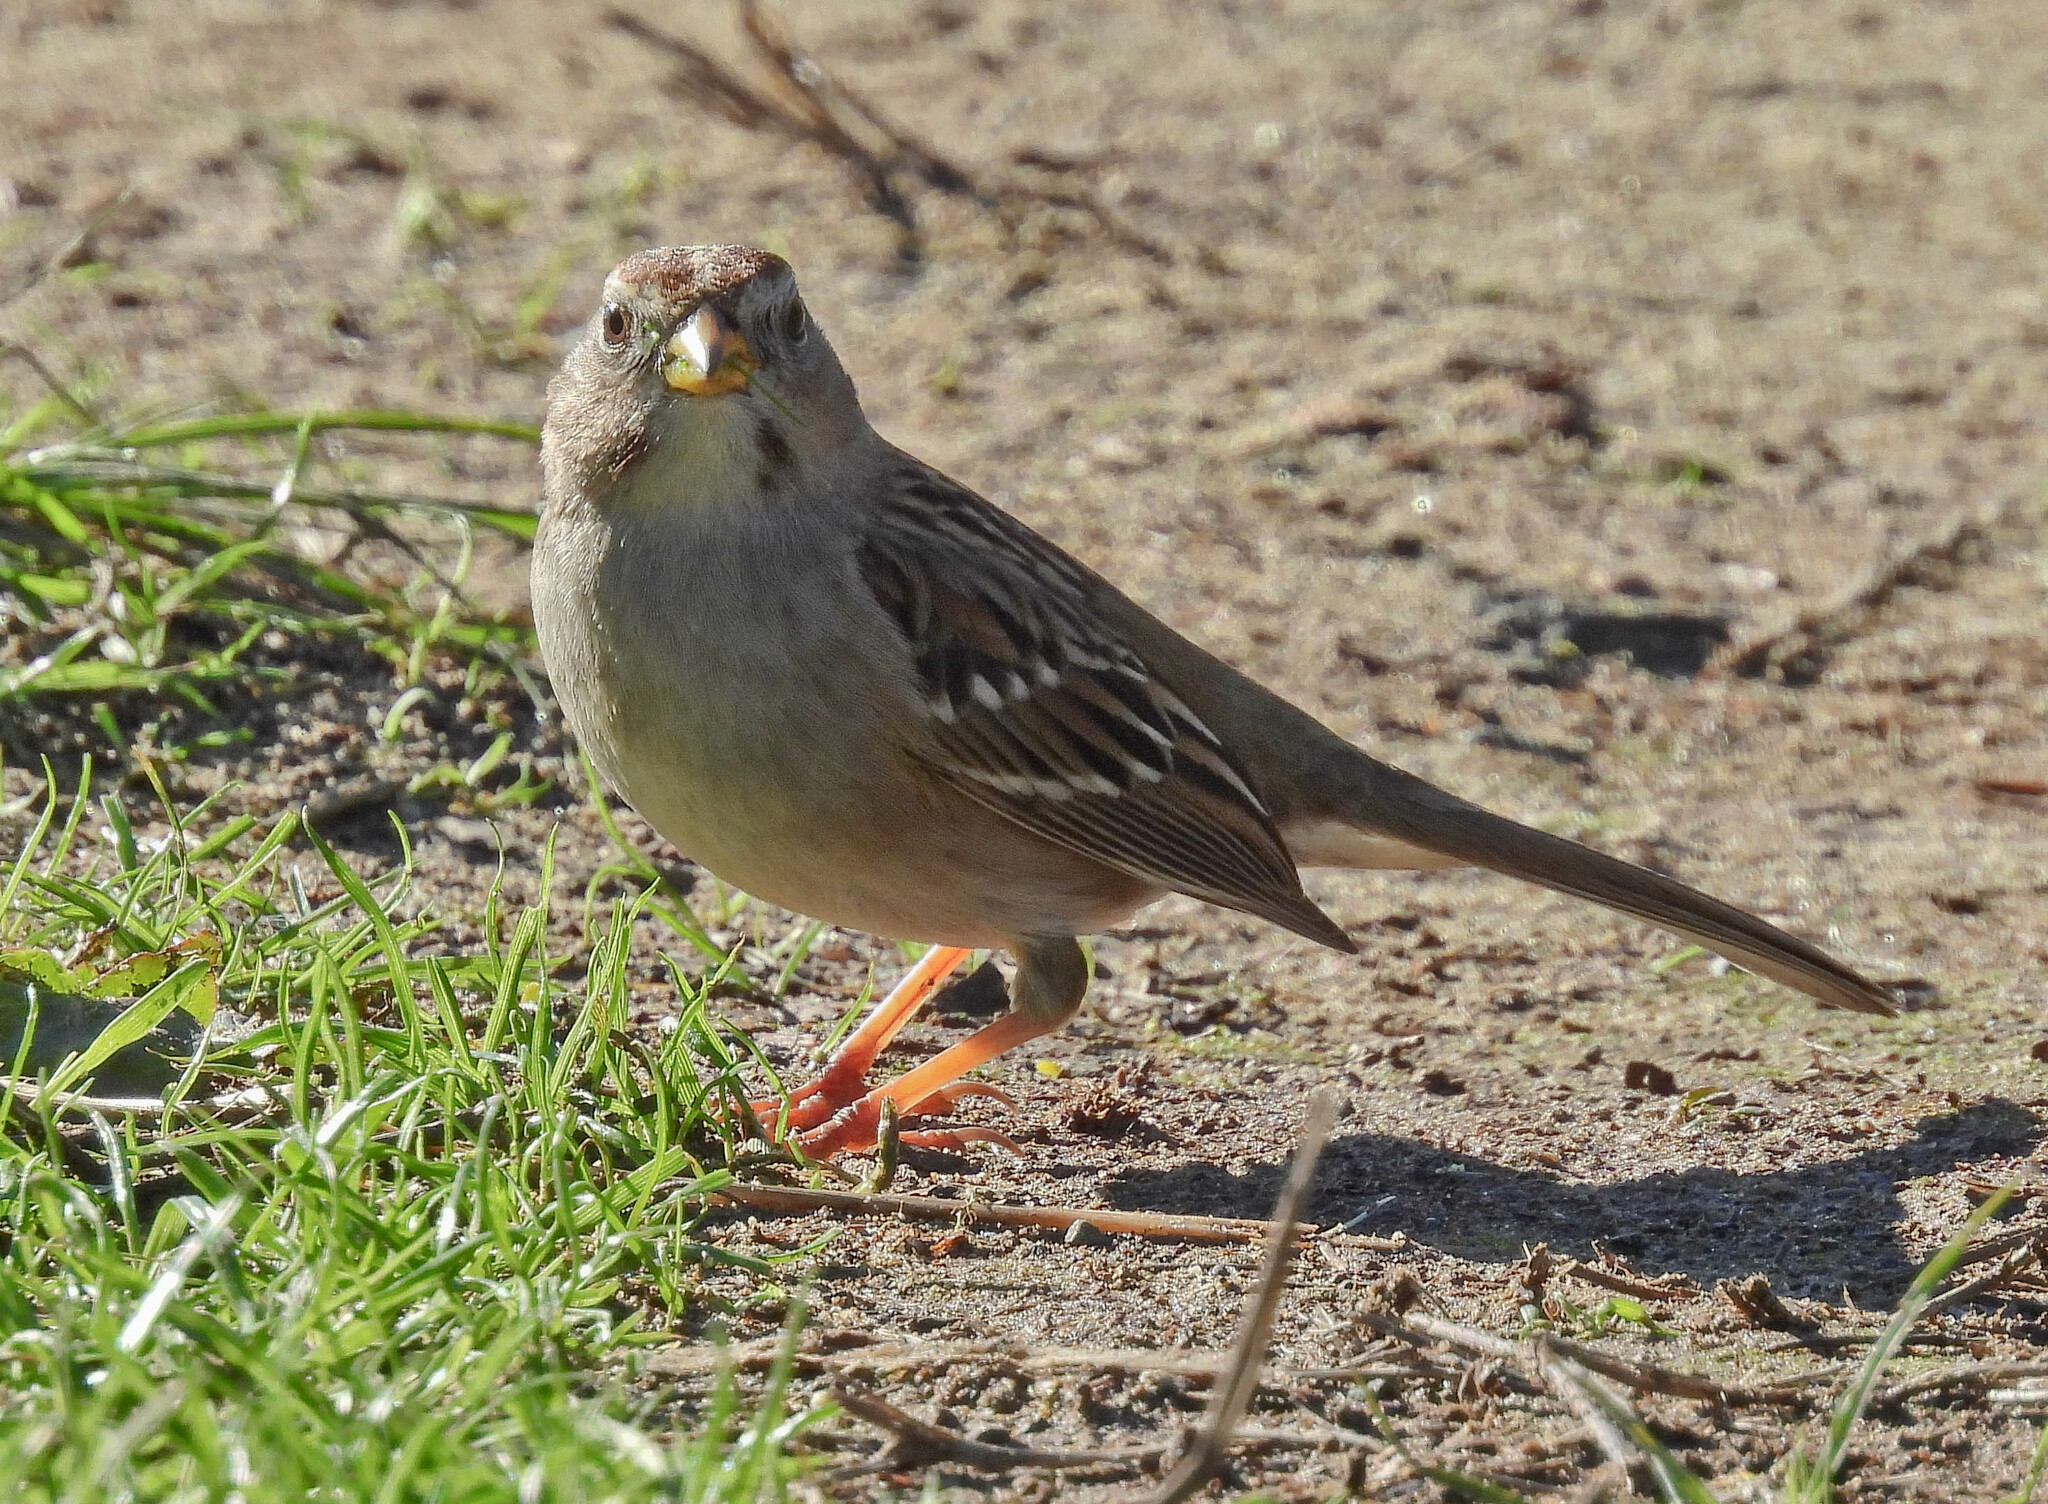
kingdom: Animalia
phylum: Chordata
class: Aves
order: Passeriformes
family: Passerellidae
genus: Zonotrichia
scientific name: Zonotrichia leucophrys
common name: White-crowned sparrow
